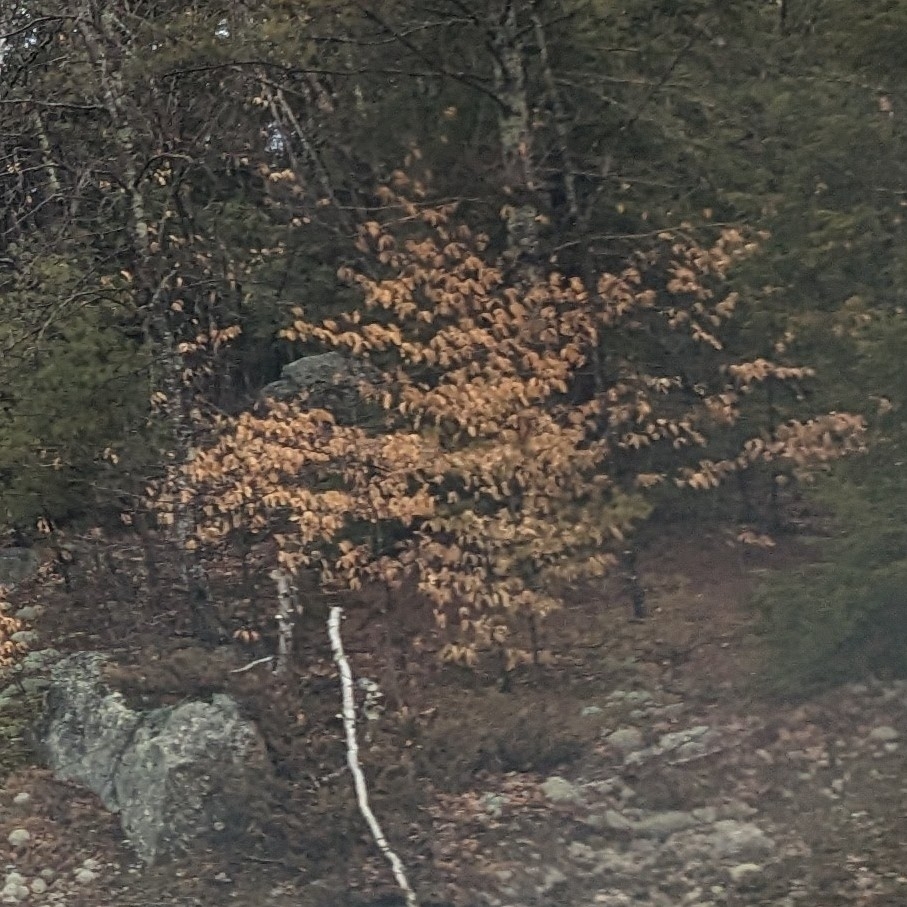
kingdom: Plantae
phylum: Tracheophyta
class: Magnoliopsida
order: Fagales
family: Fagaceae
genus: Fagus
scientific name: Fagus grandifolia
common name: American beech
